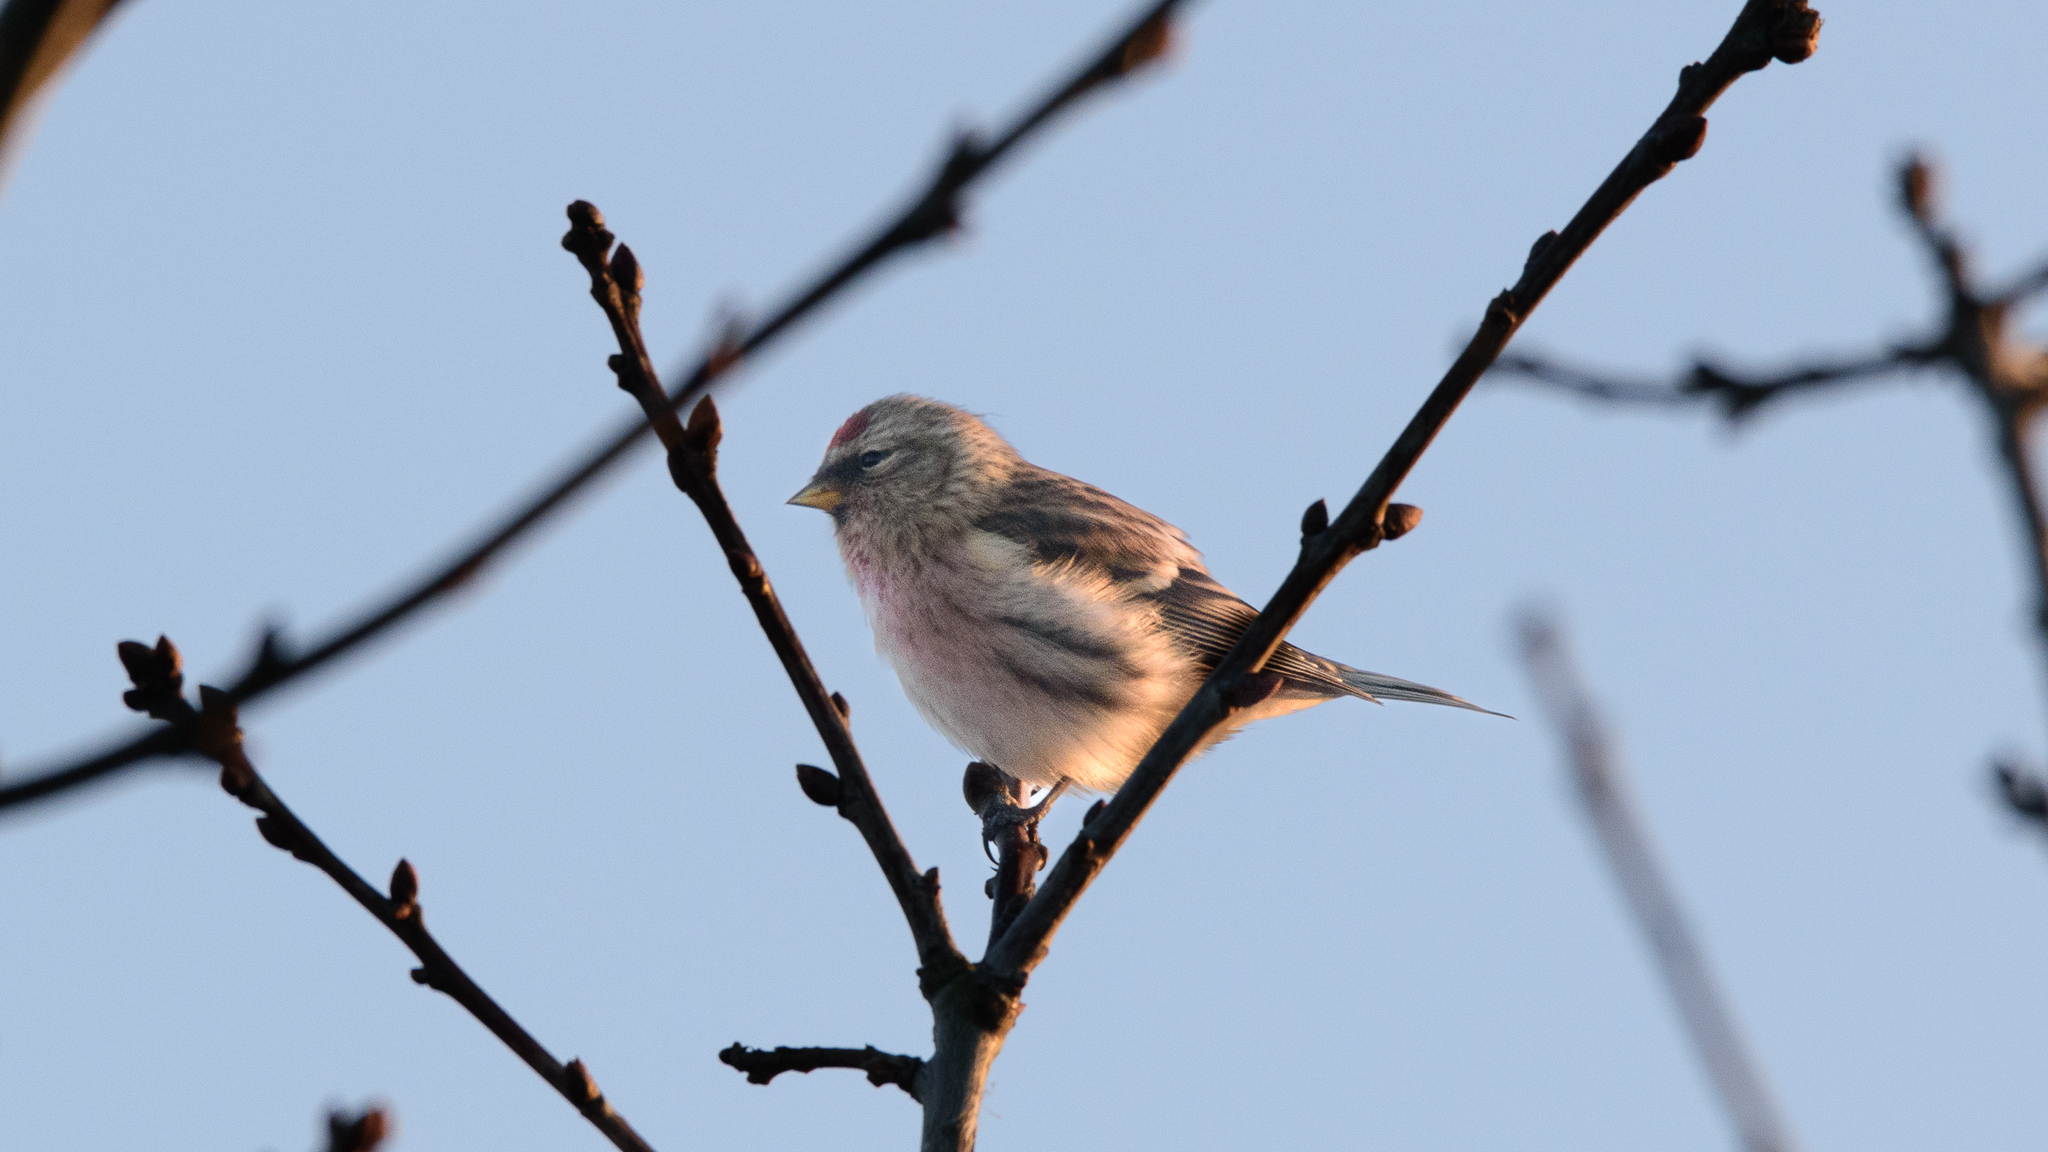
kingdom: Animalia
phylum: Chordata
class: Aves
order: Passeriformes
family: Fringillidae
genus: Acanthis
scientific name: Acanthis flammea
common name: Common redpoll
